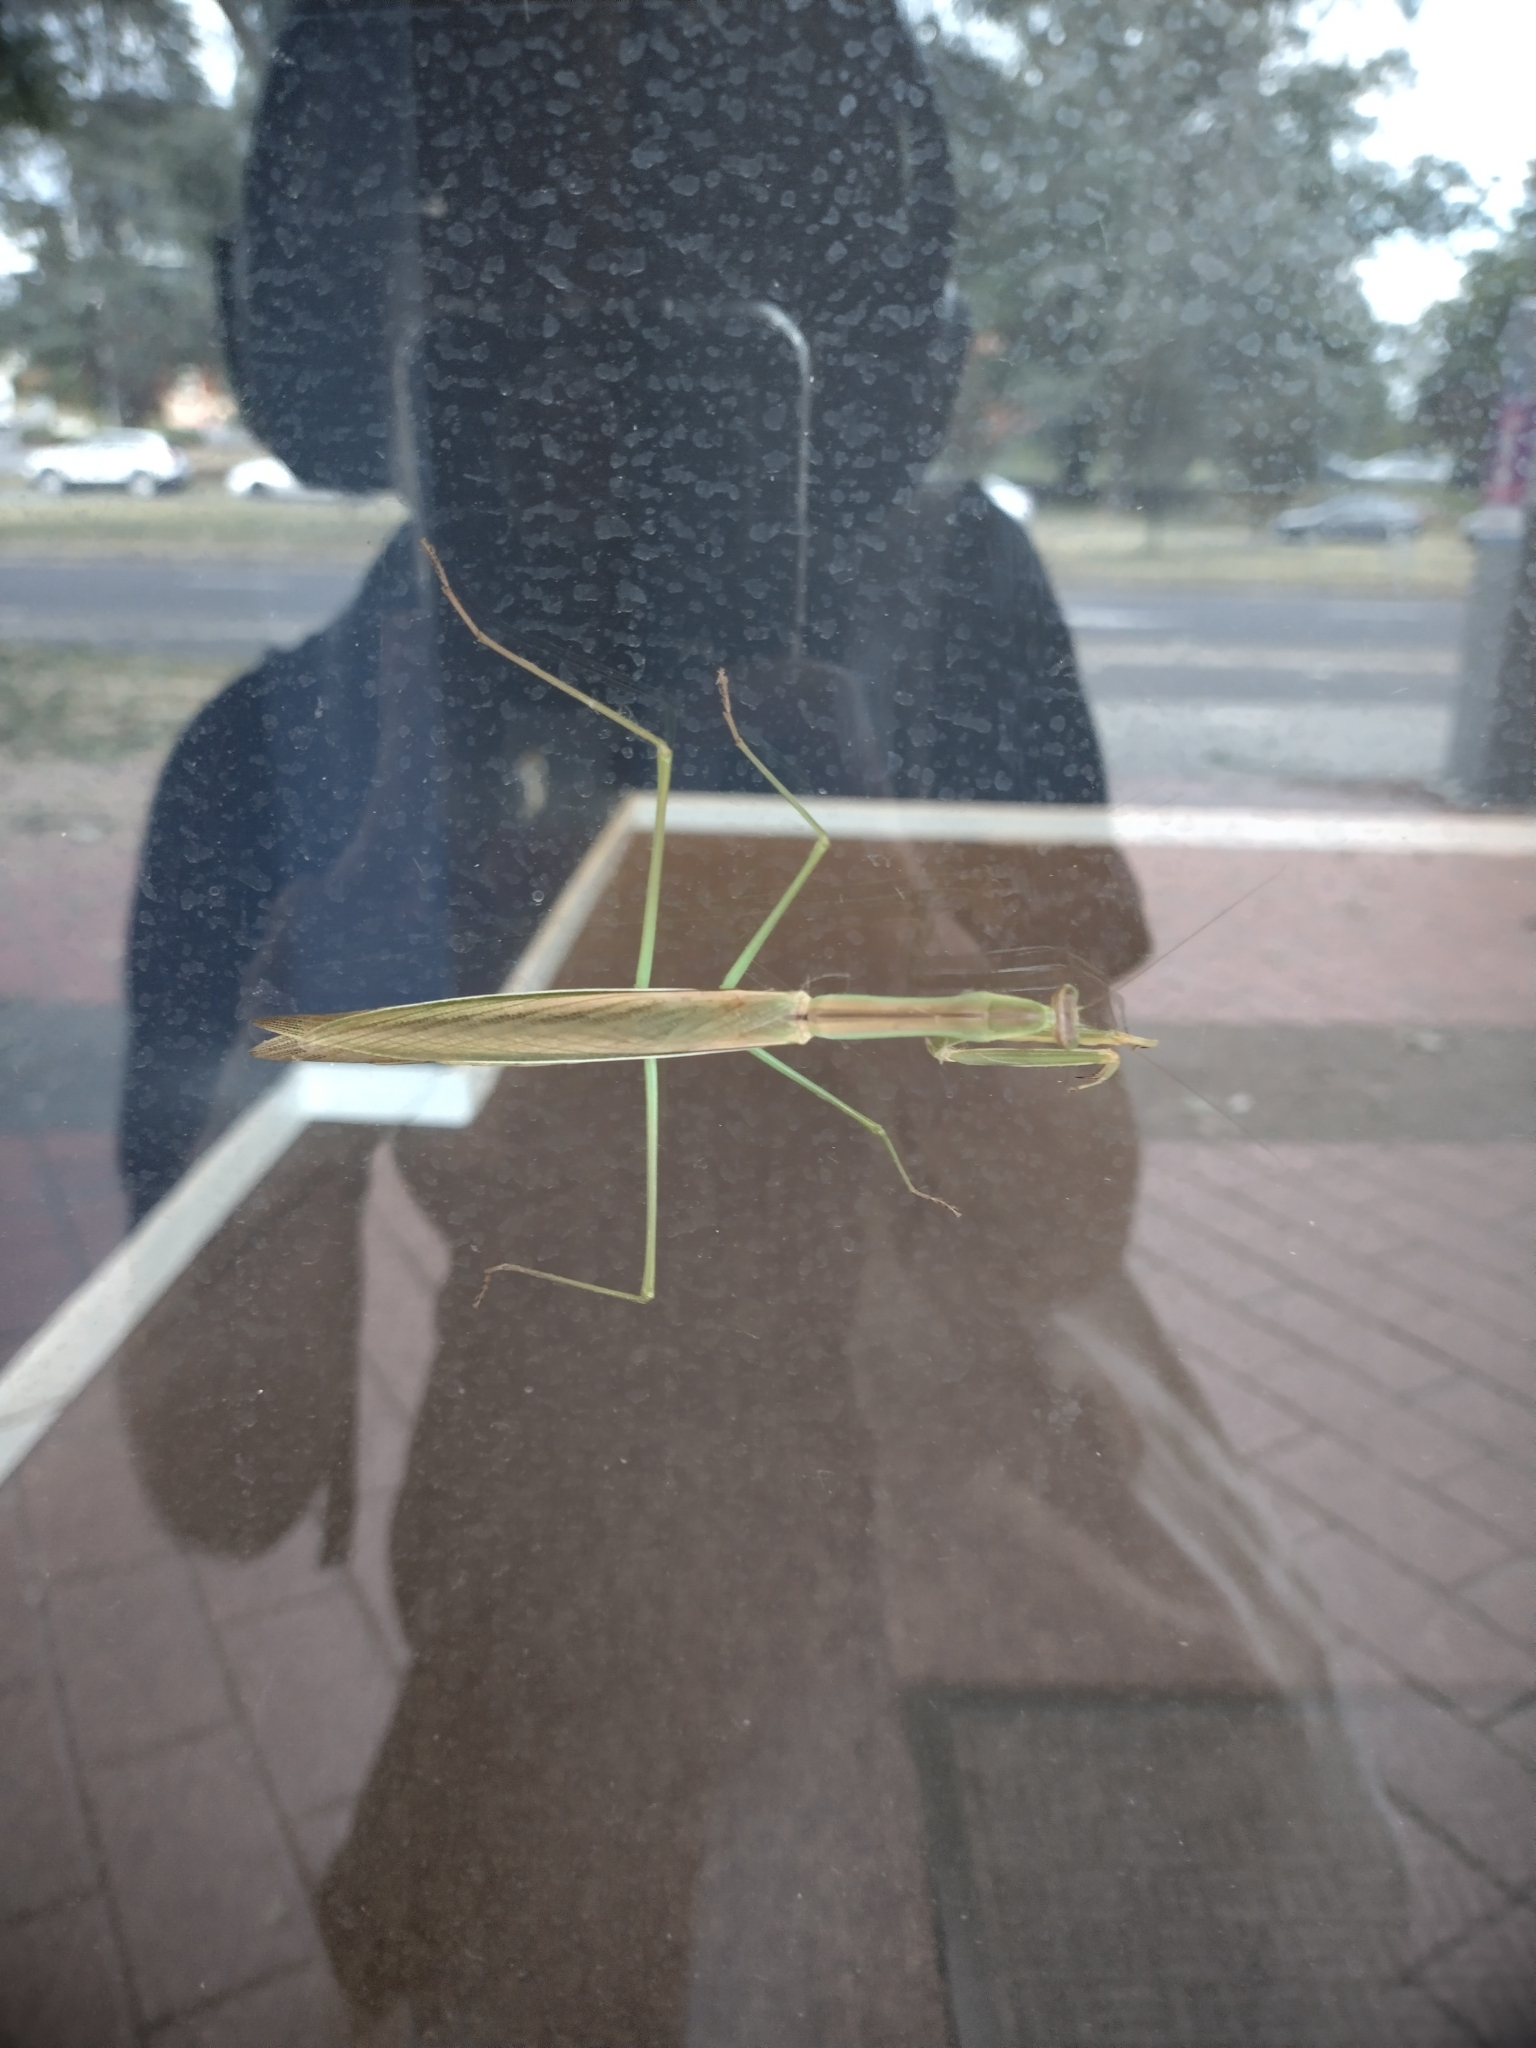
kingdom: Animalia
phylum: Arthropoda
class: Insecta
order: Mantodea
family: Mantidae
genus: Tenodera
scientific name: Tenodera australasiae
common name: Purple-winged mantis
